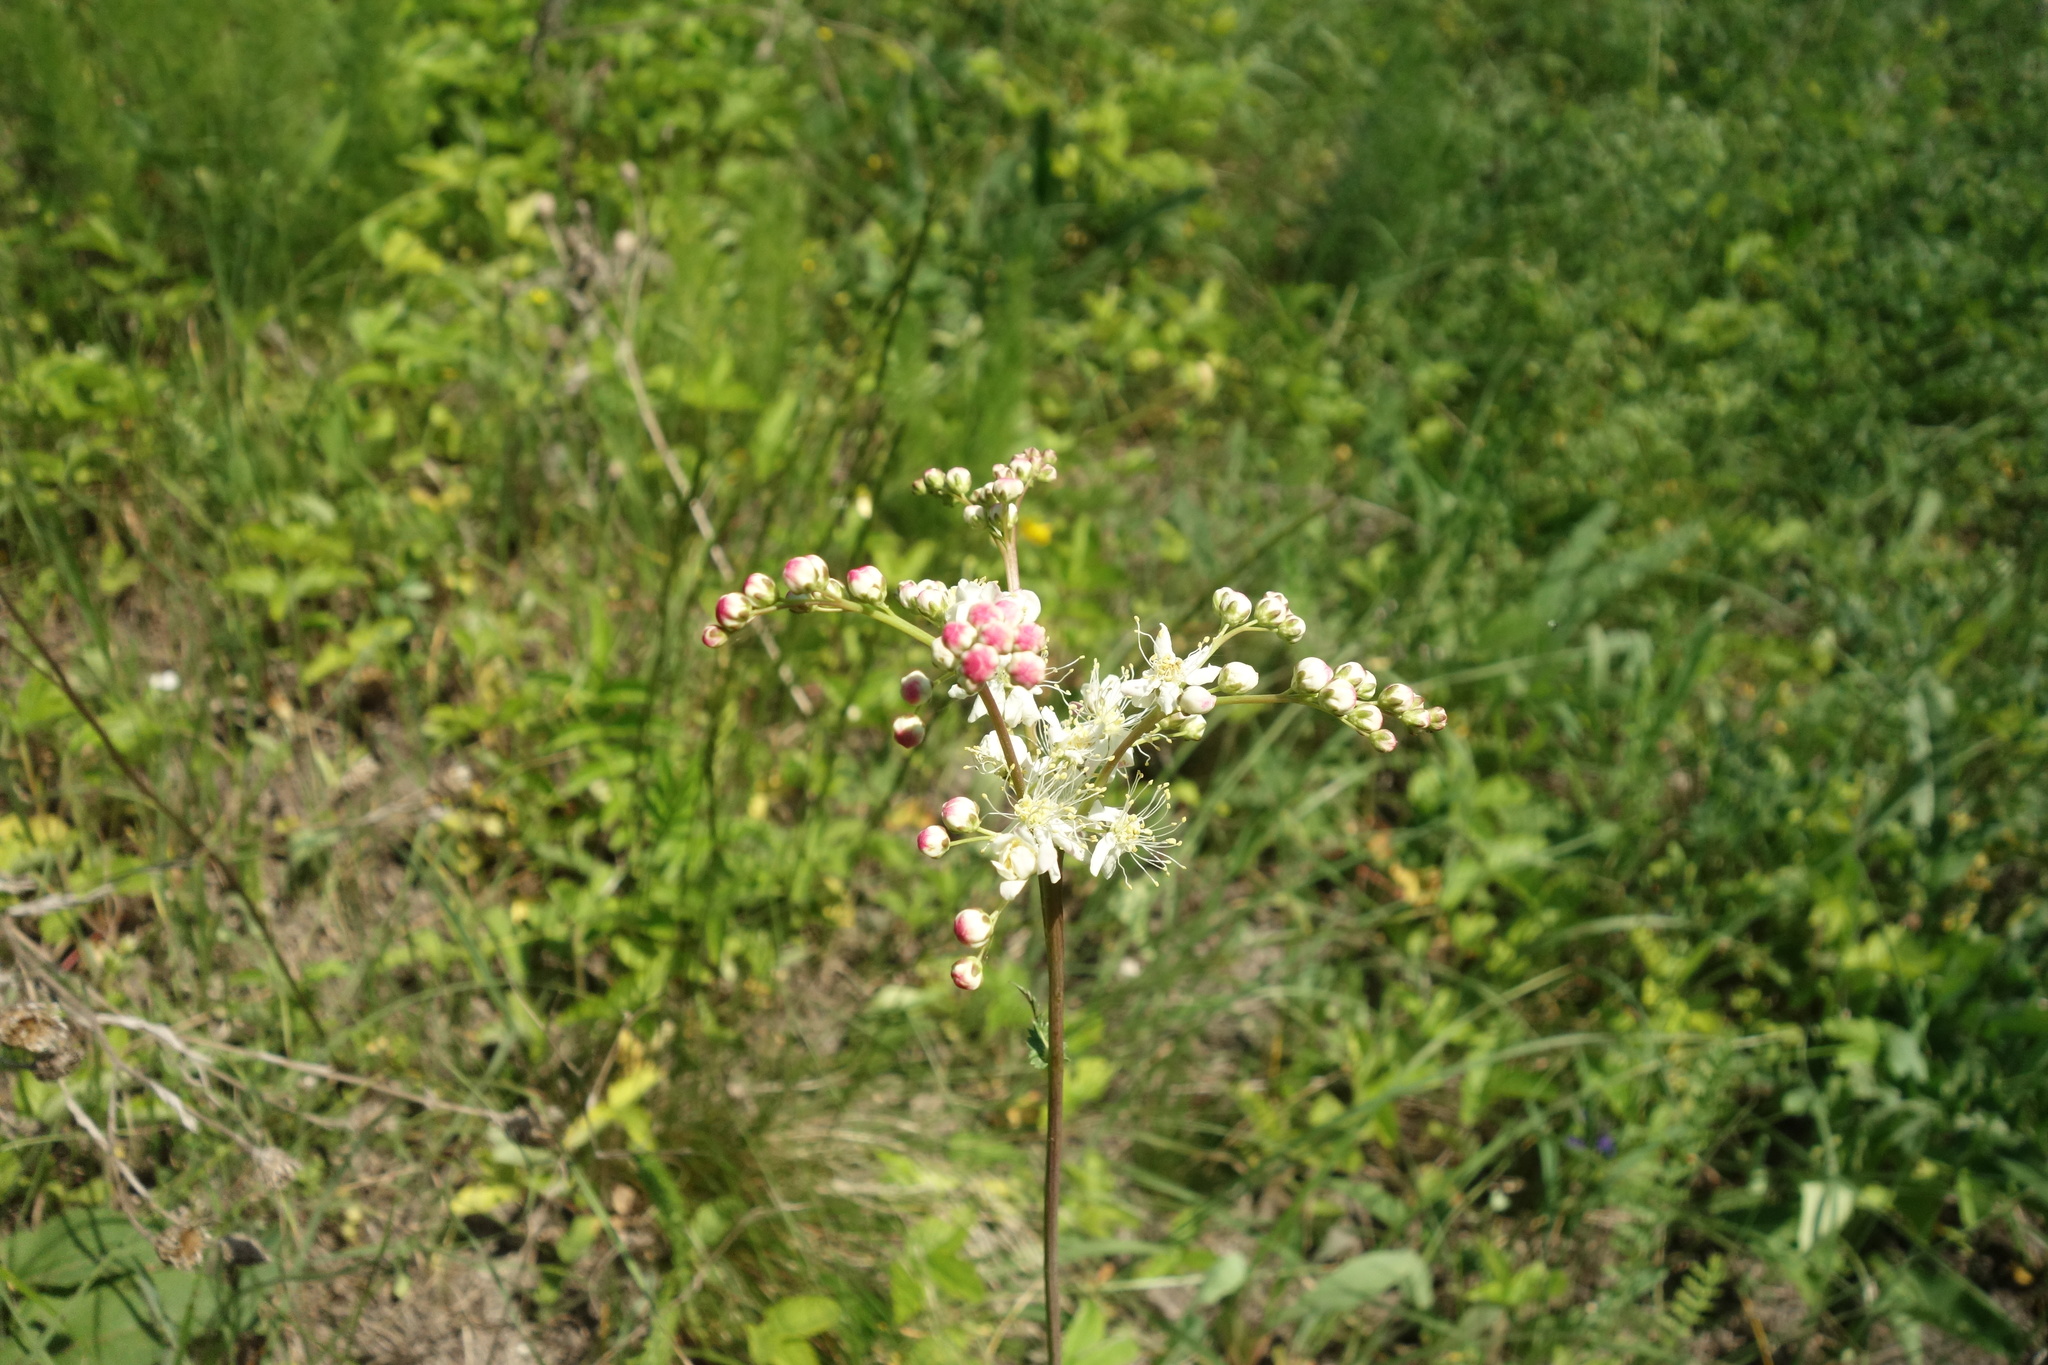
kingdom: Plantae
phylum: Tracheophyta
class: Magnoliopsida
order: Rosales
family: Rosaceae
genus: Filipendula
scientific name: Filipendula vulgaris
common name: Dropwort
